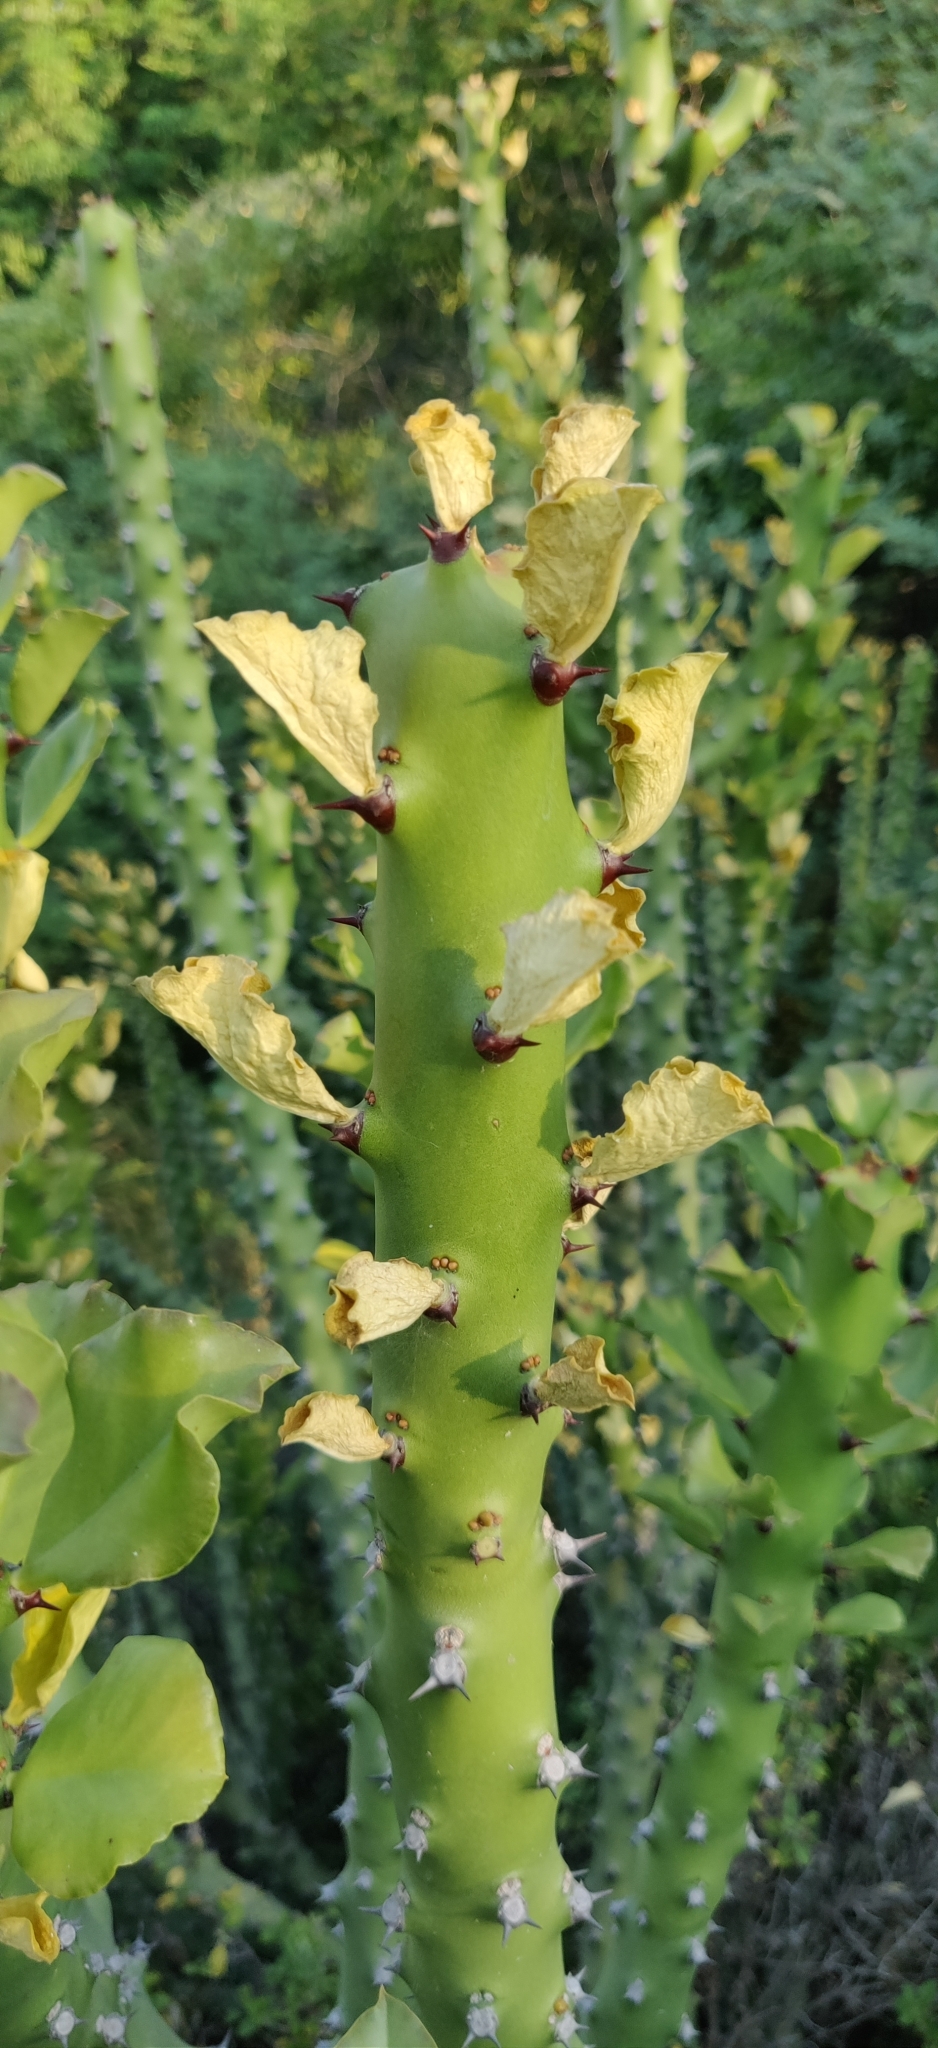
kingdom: Plantae
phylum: Tracheophyta
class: Magnoliopsida
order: Malpighiales
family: Euphorbiaceae
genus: Euphorbia
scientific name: Euphorbia caducifolia
